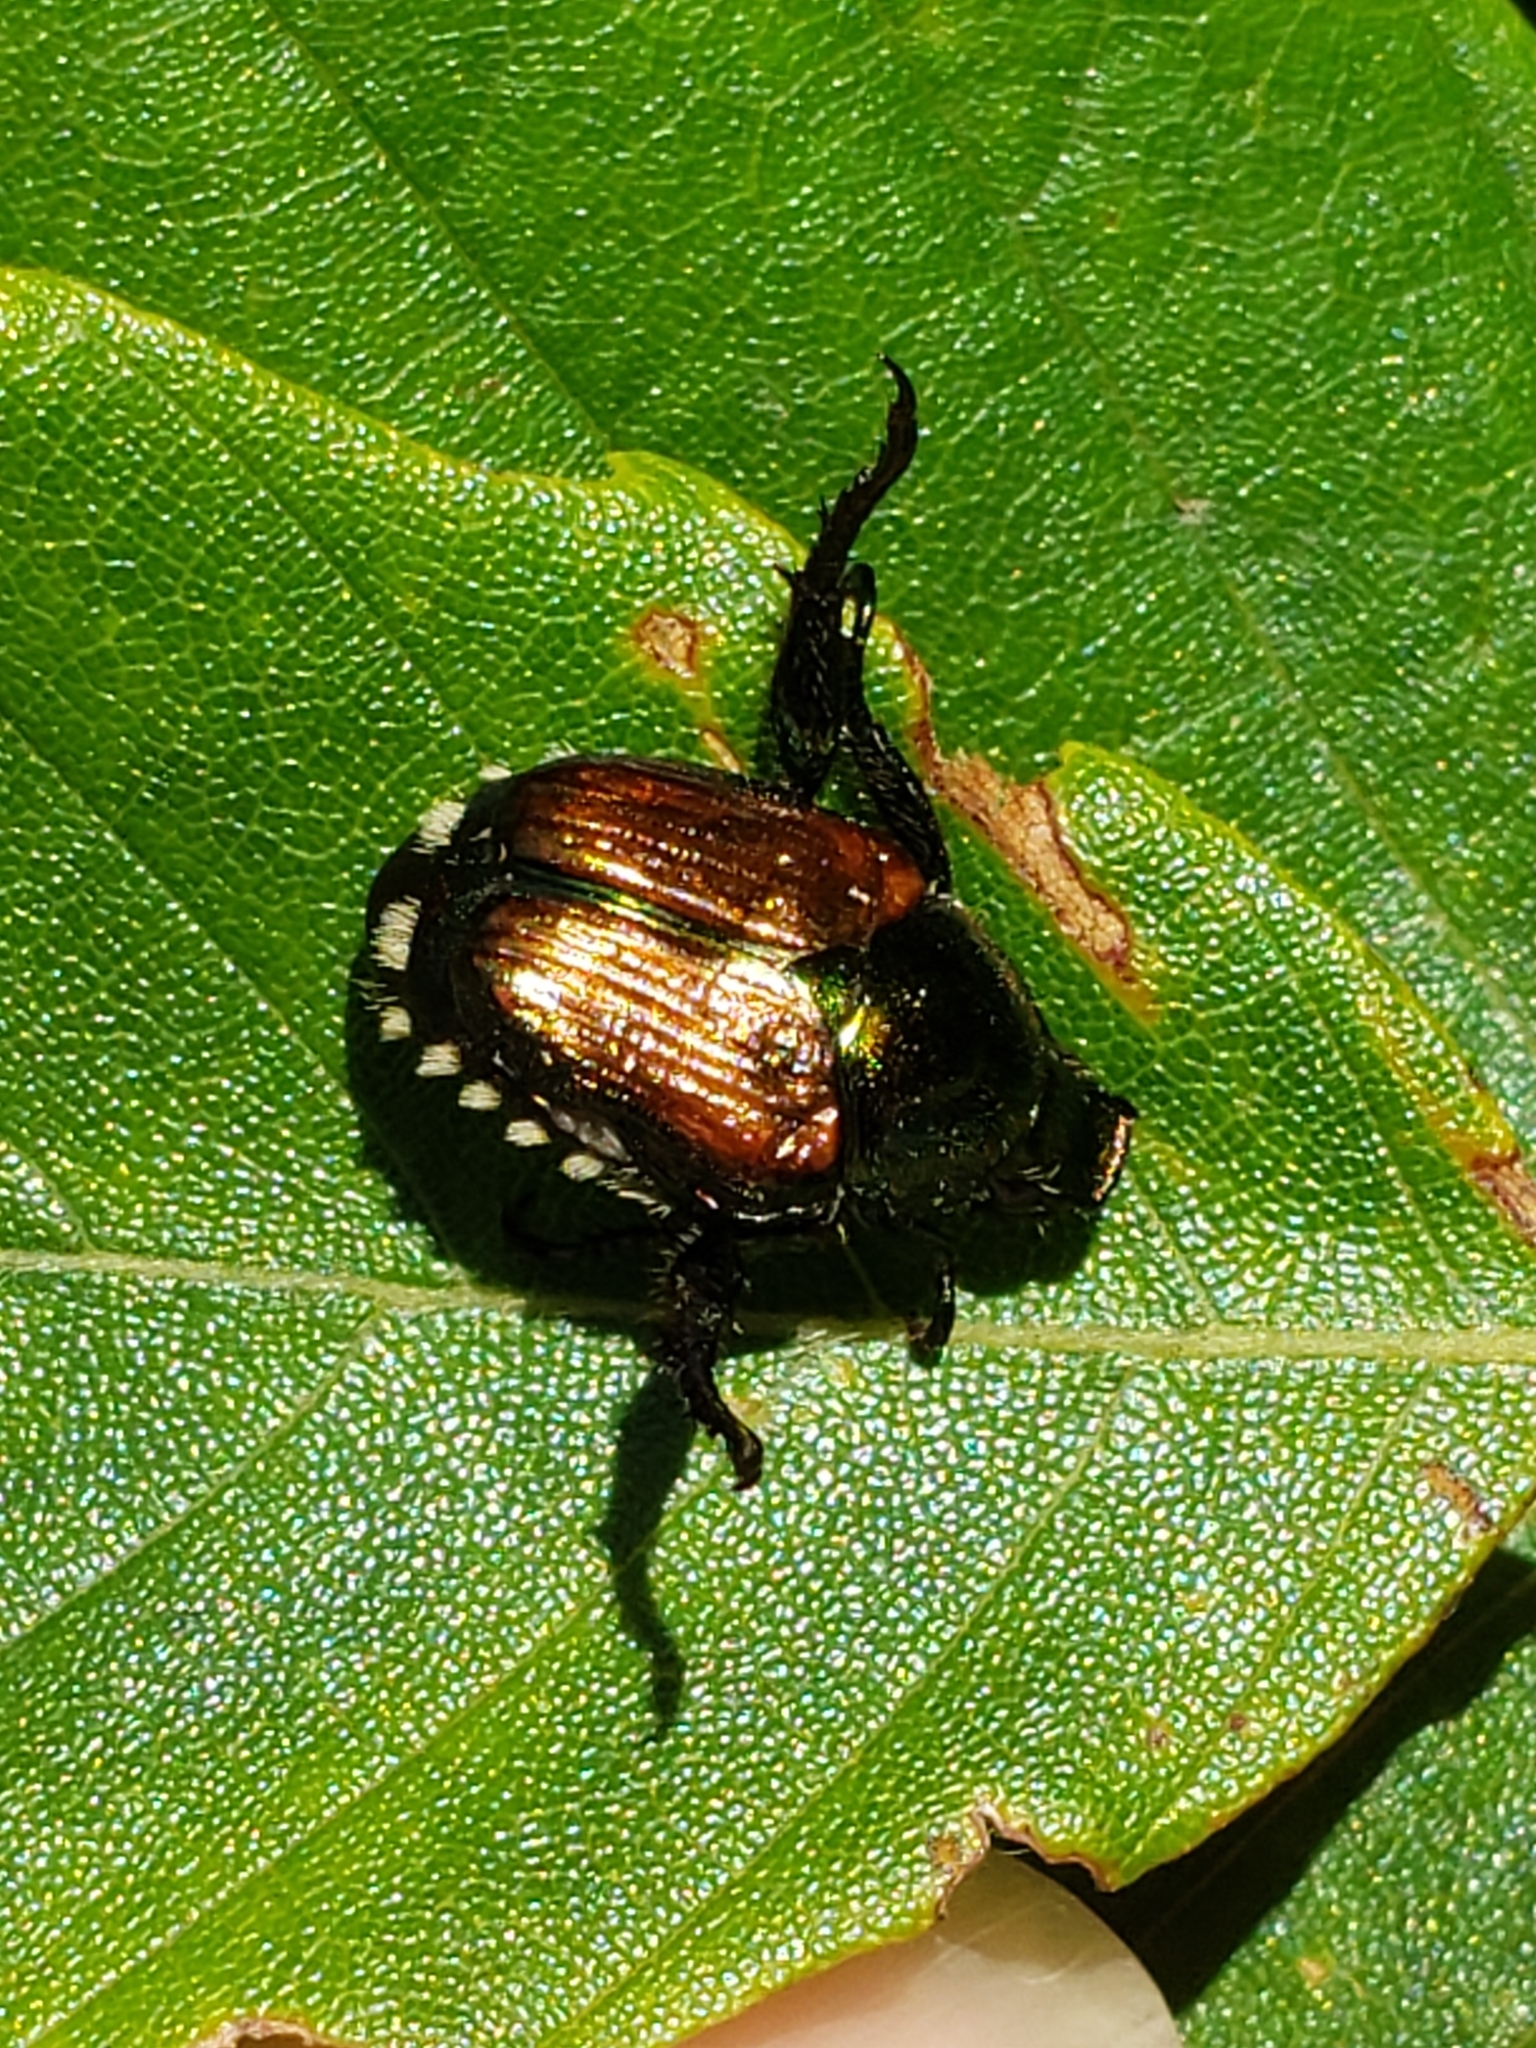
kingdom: Animalia
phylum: Arthropoda
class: Insecta
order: Coleoptera
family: Scarabaeidae
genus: Popillia
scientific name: Popillia japonica
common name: Japanese beetle
